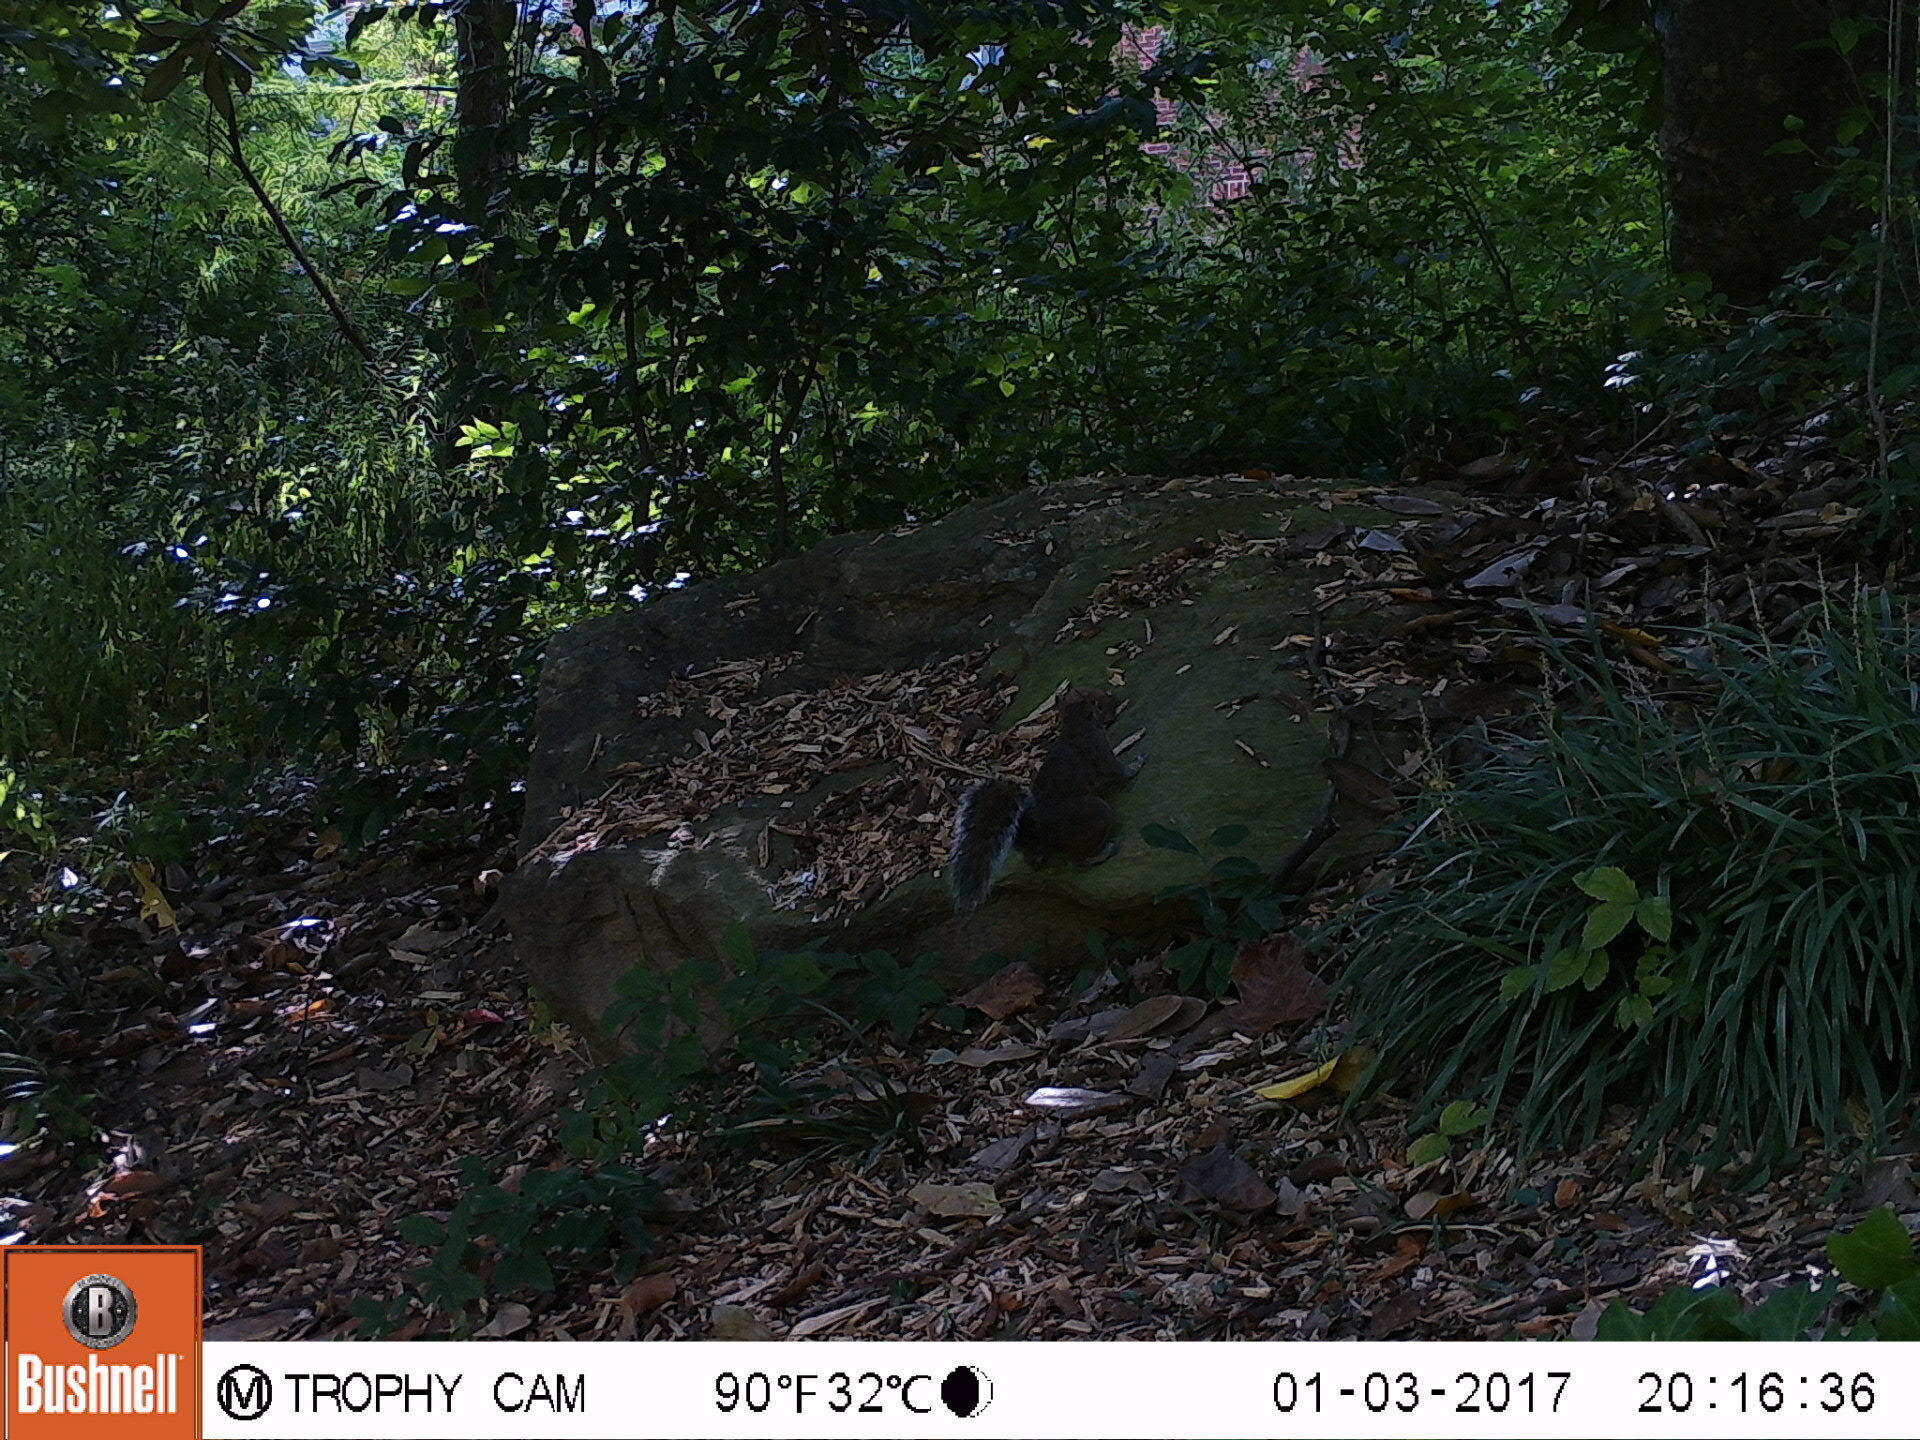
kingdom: Animalia
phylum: Chordata
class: Mammalia
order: Rodentia
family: Sciuridae
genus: Sciurus
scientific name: Sciurus carolinensis
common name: Eastern gray squirrel
